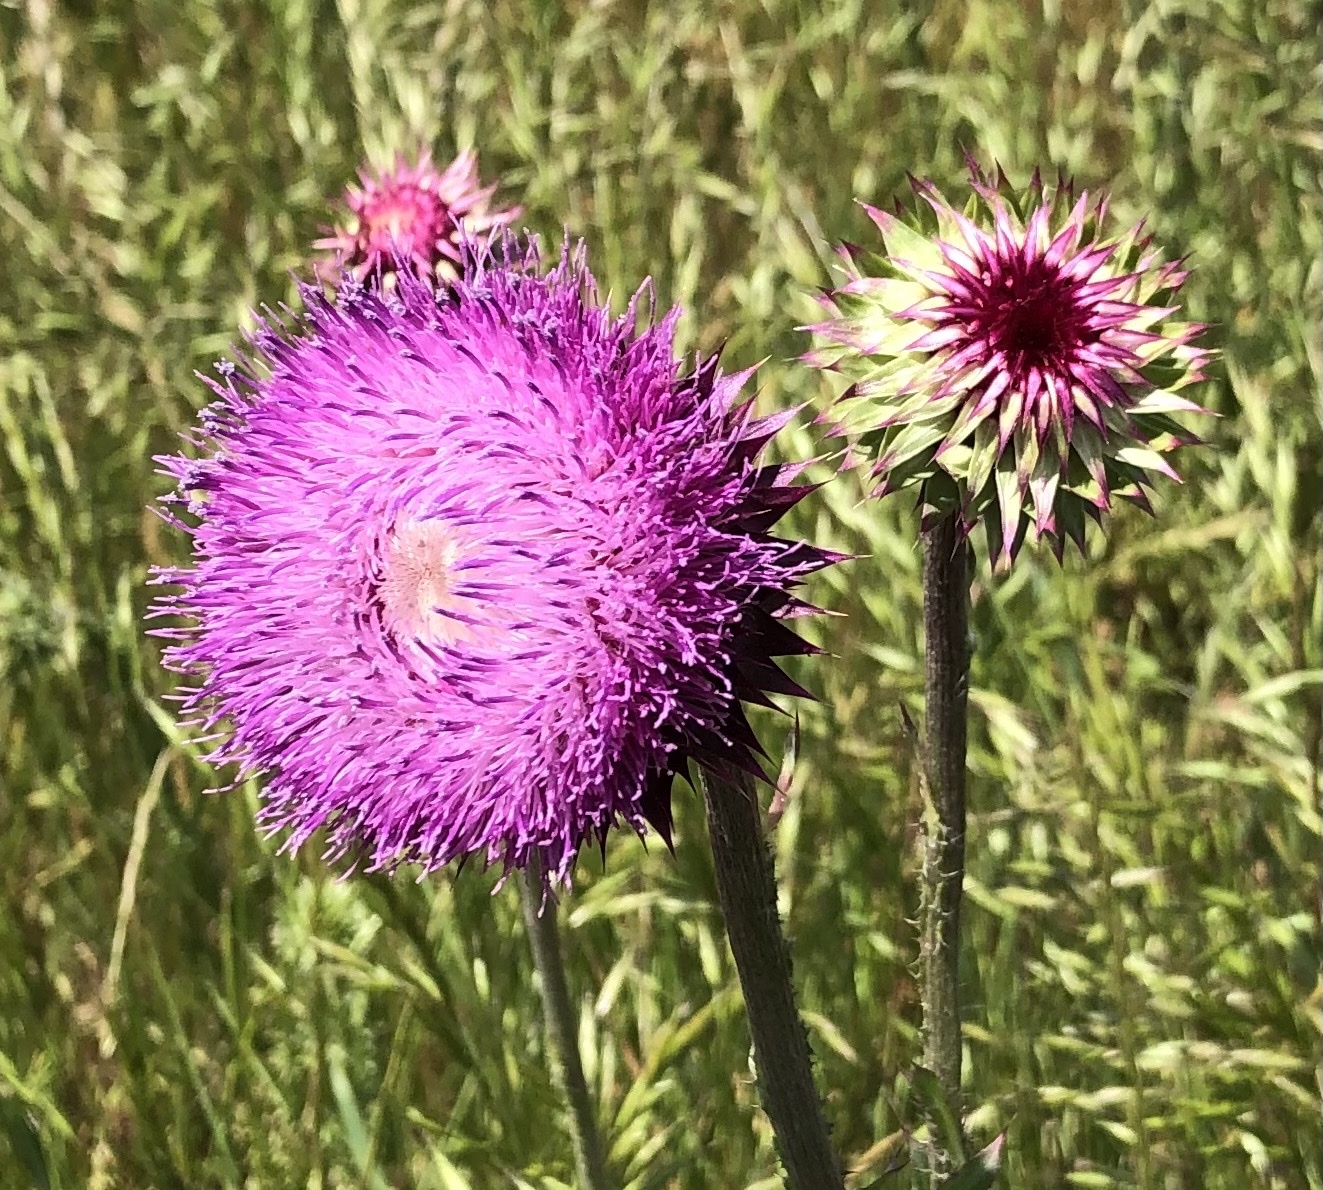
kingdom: Plantae
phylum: Tracheophyta
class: Magnoliopsida
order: Asterales
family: Asteraceae
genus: Carduus
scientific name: Carduus nutans
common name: Musk thistle
